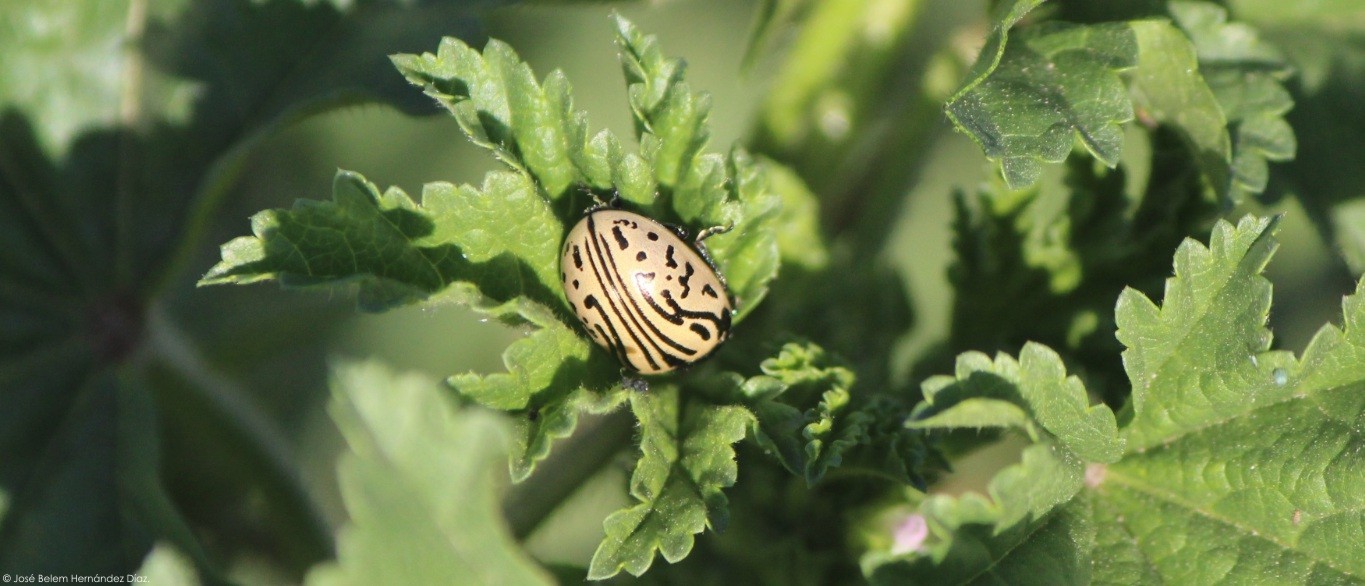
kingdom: Animalia
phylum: Arthropoda
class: Insecta
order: Coleoptera
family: Chrysomelidae
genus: Calligrapha
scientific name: Calligrapha dislocata
